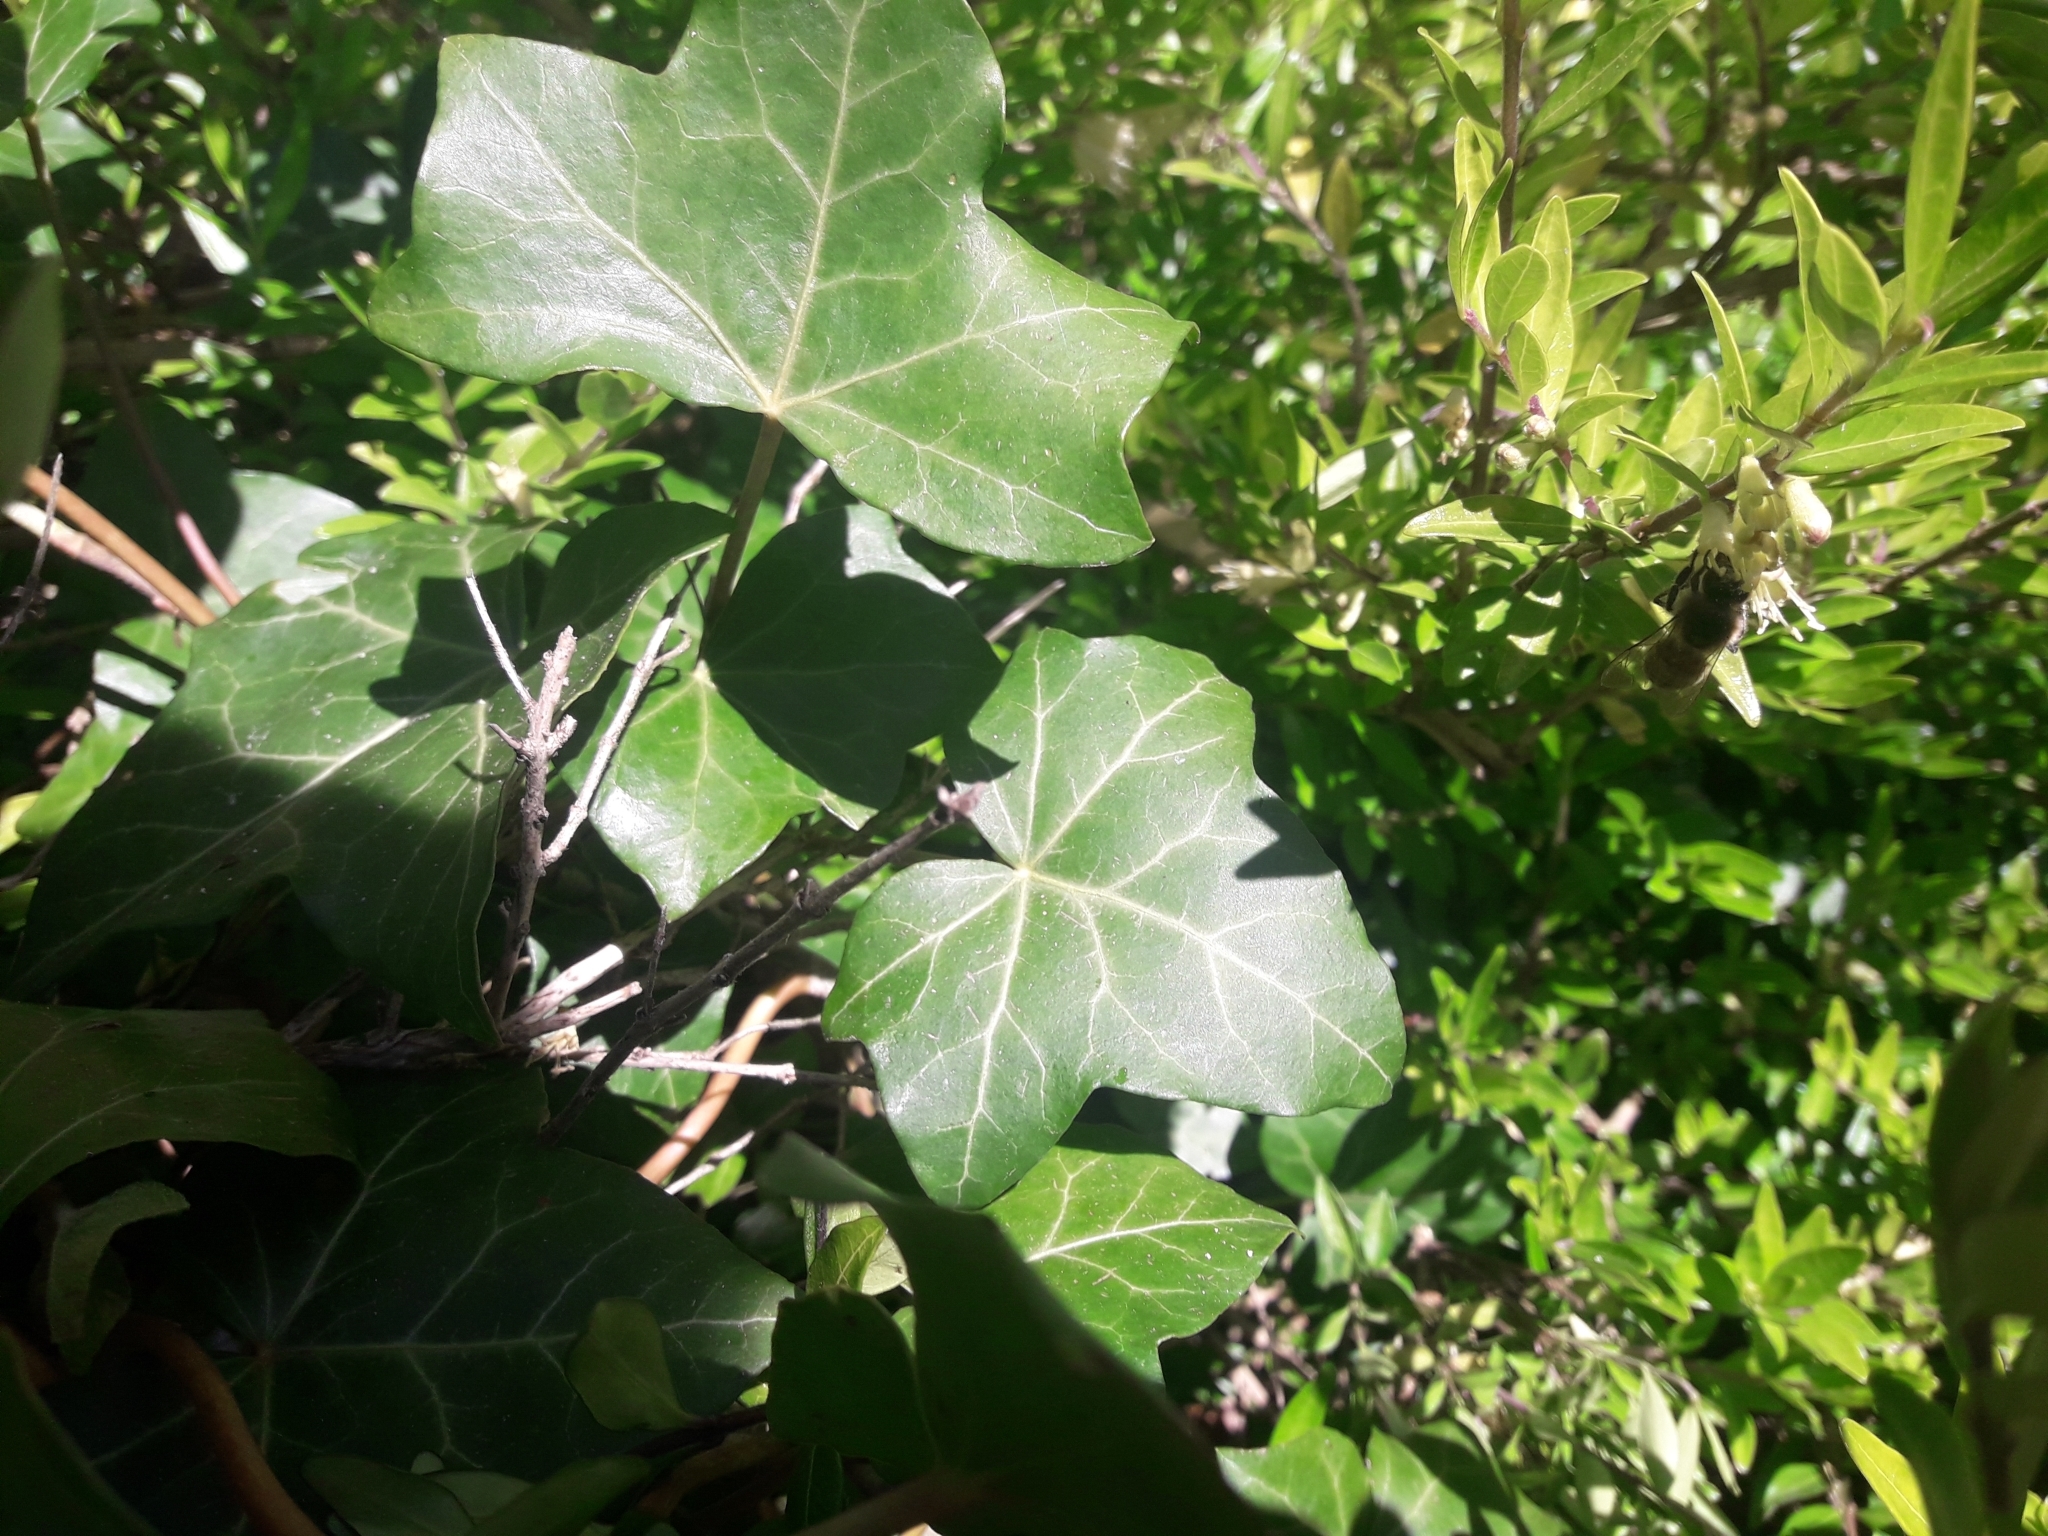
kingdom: Plantae
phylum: Tracheophyta
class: Magnoliopsida
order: Apiales
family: Araliaceae
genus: Hedera
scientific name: Hedera helix
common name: Ivy
